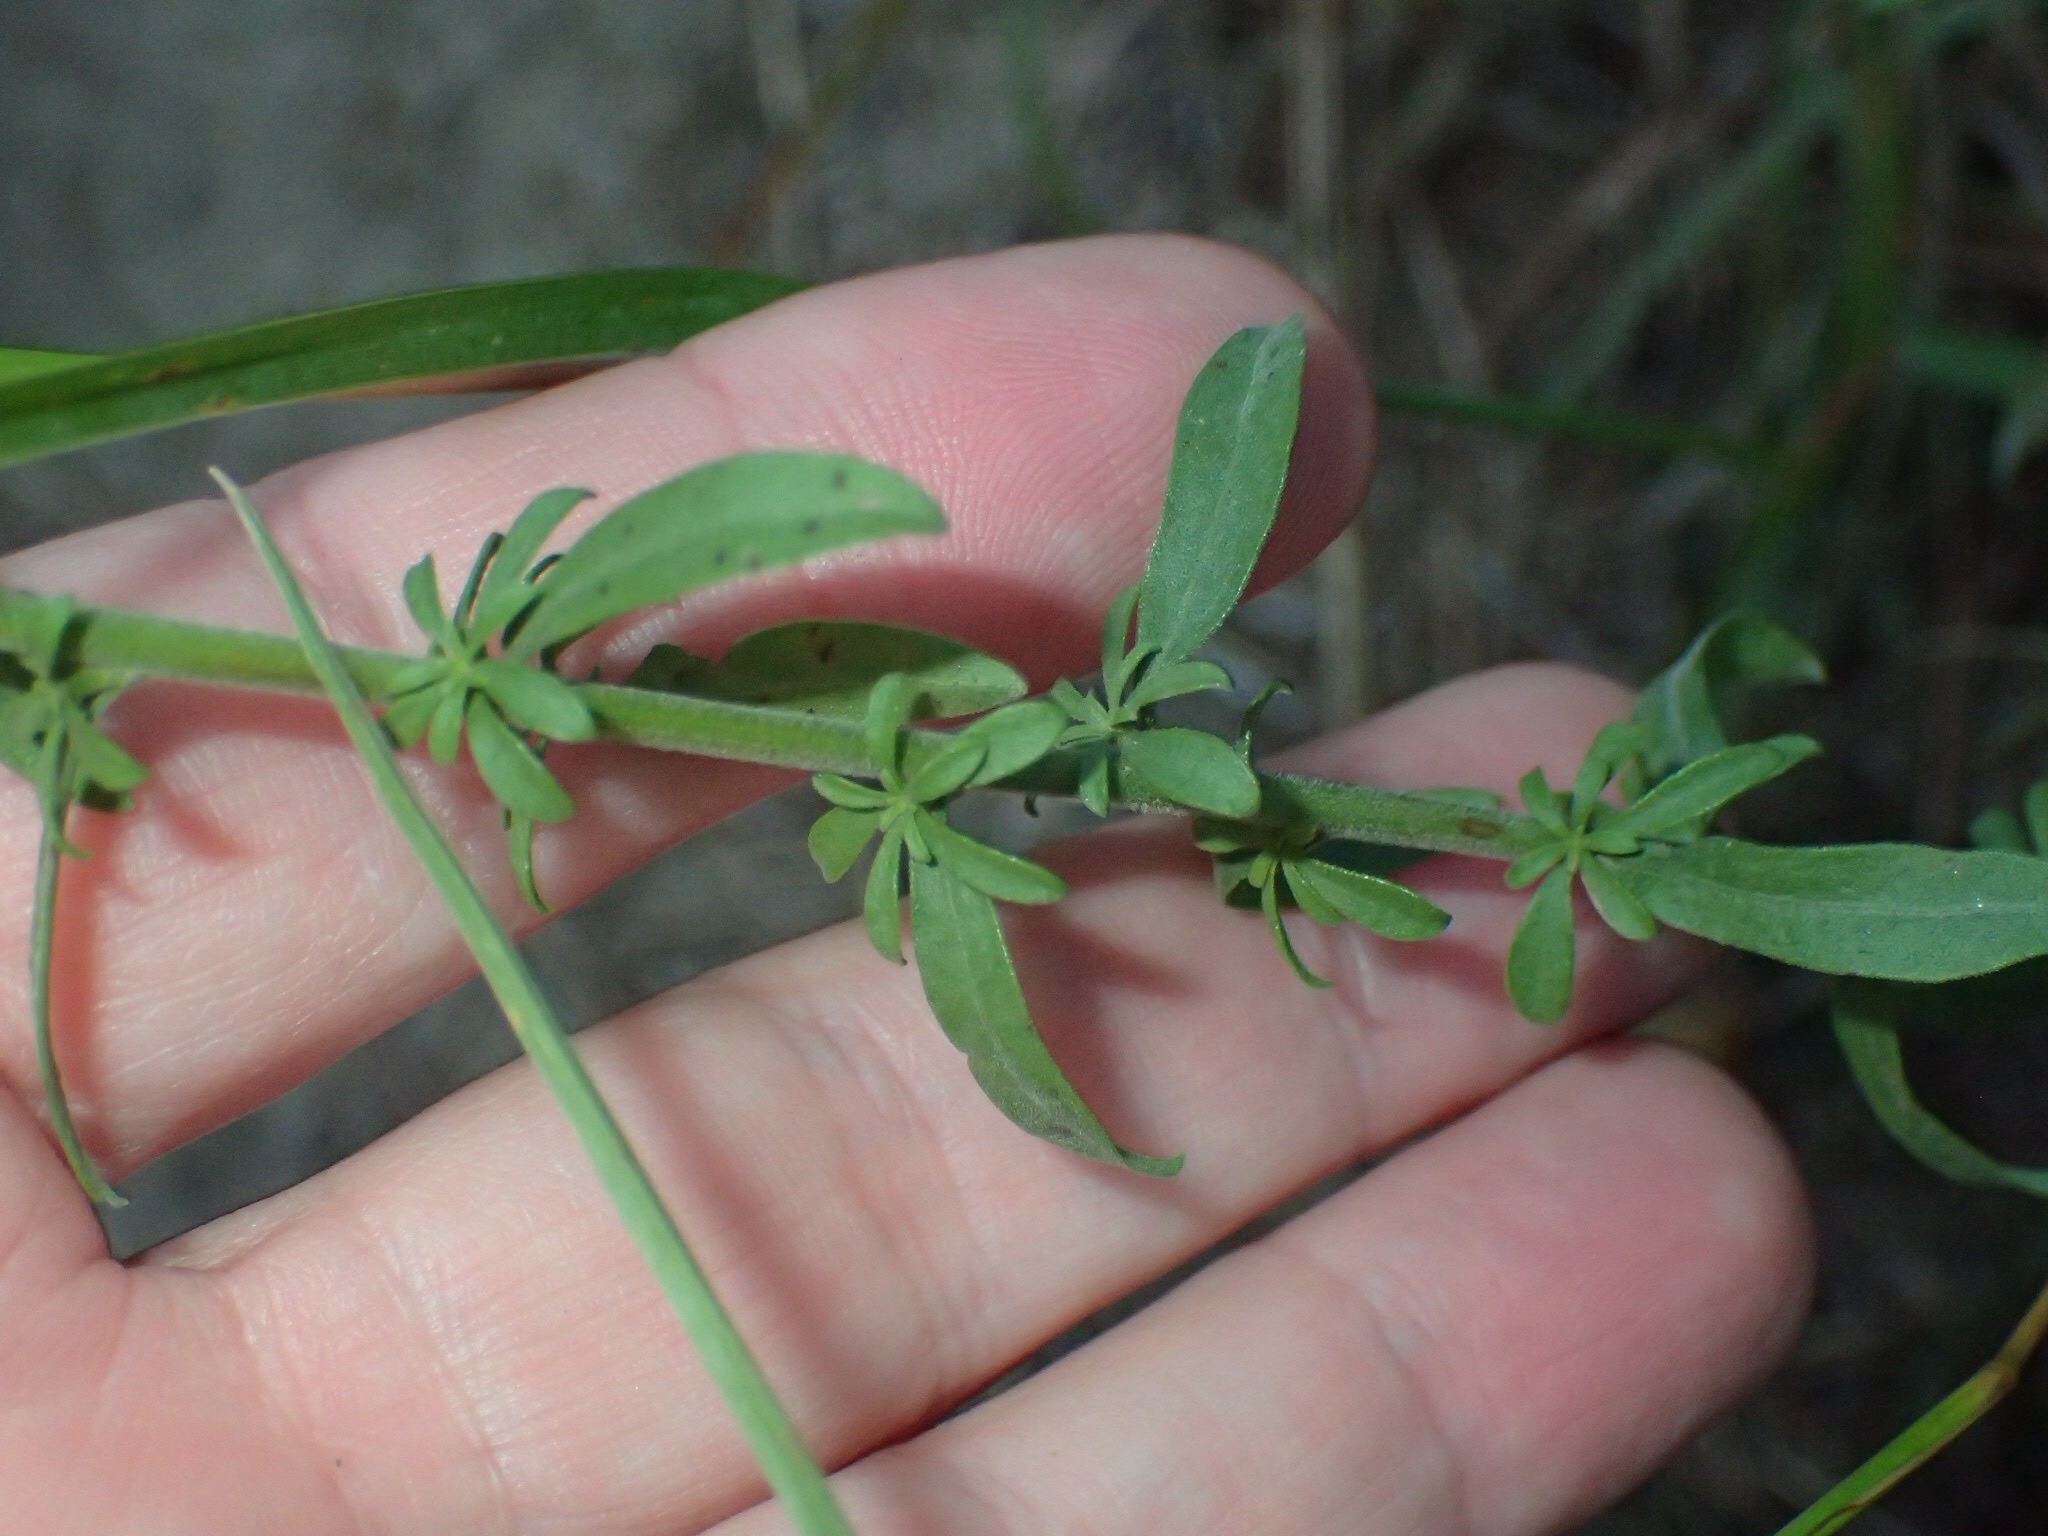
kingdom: Plantae
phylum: Tracheophyta
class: Magnoliopsida
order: Asterales
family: Asteraceae
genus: Solidago
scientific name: Solidago nemoralis
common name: Grey goldenrod
